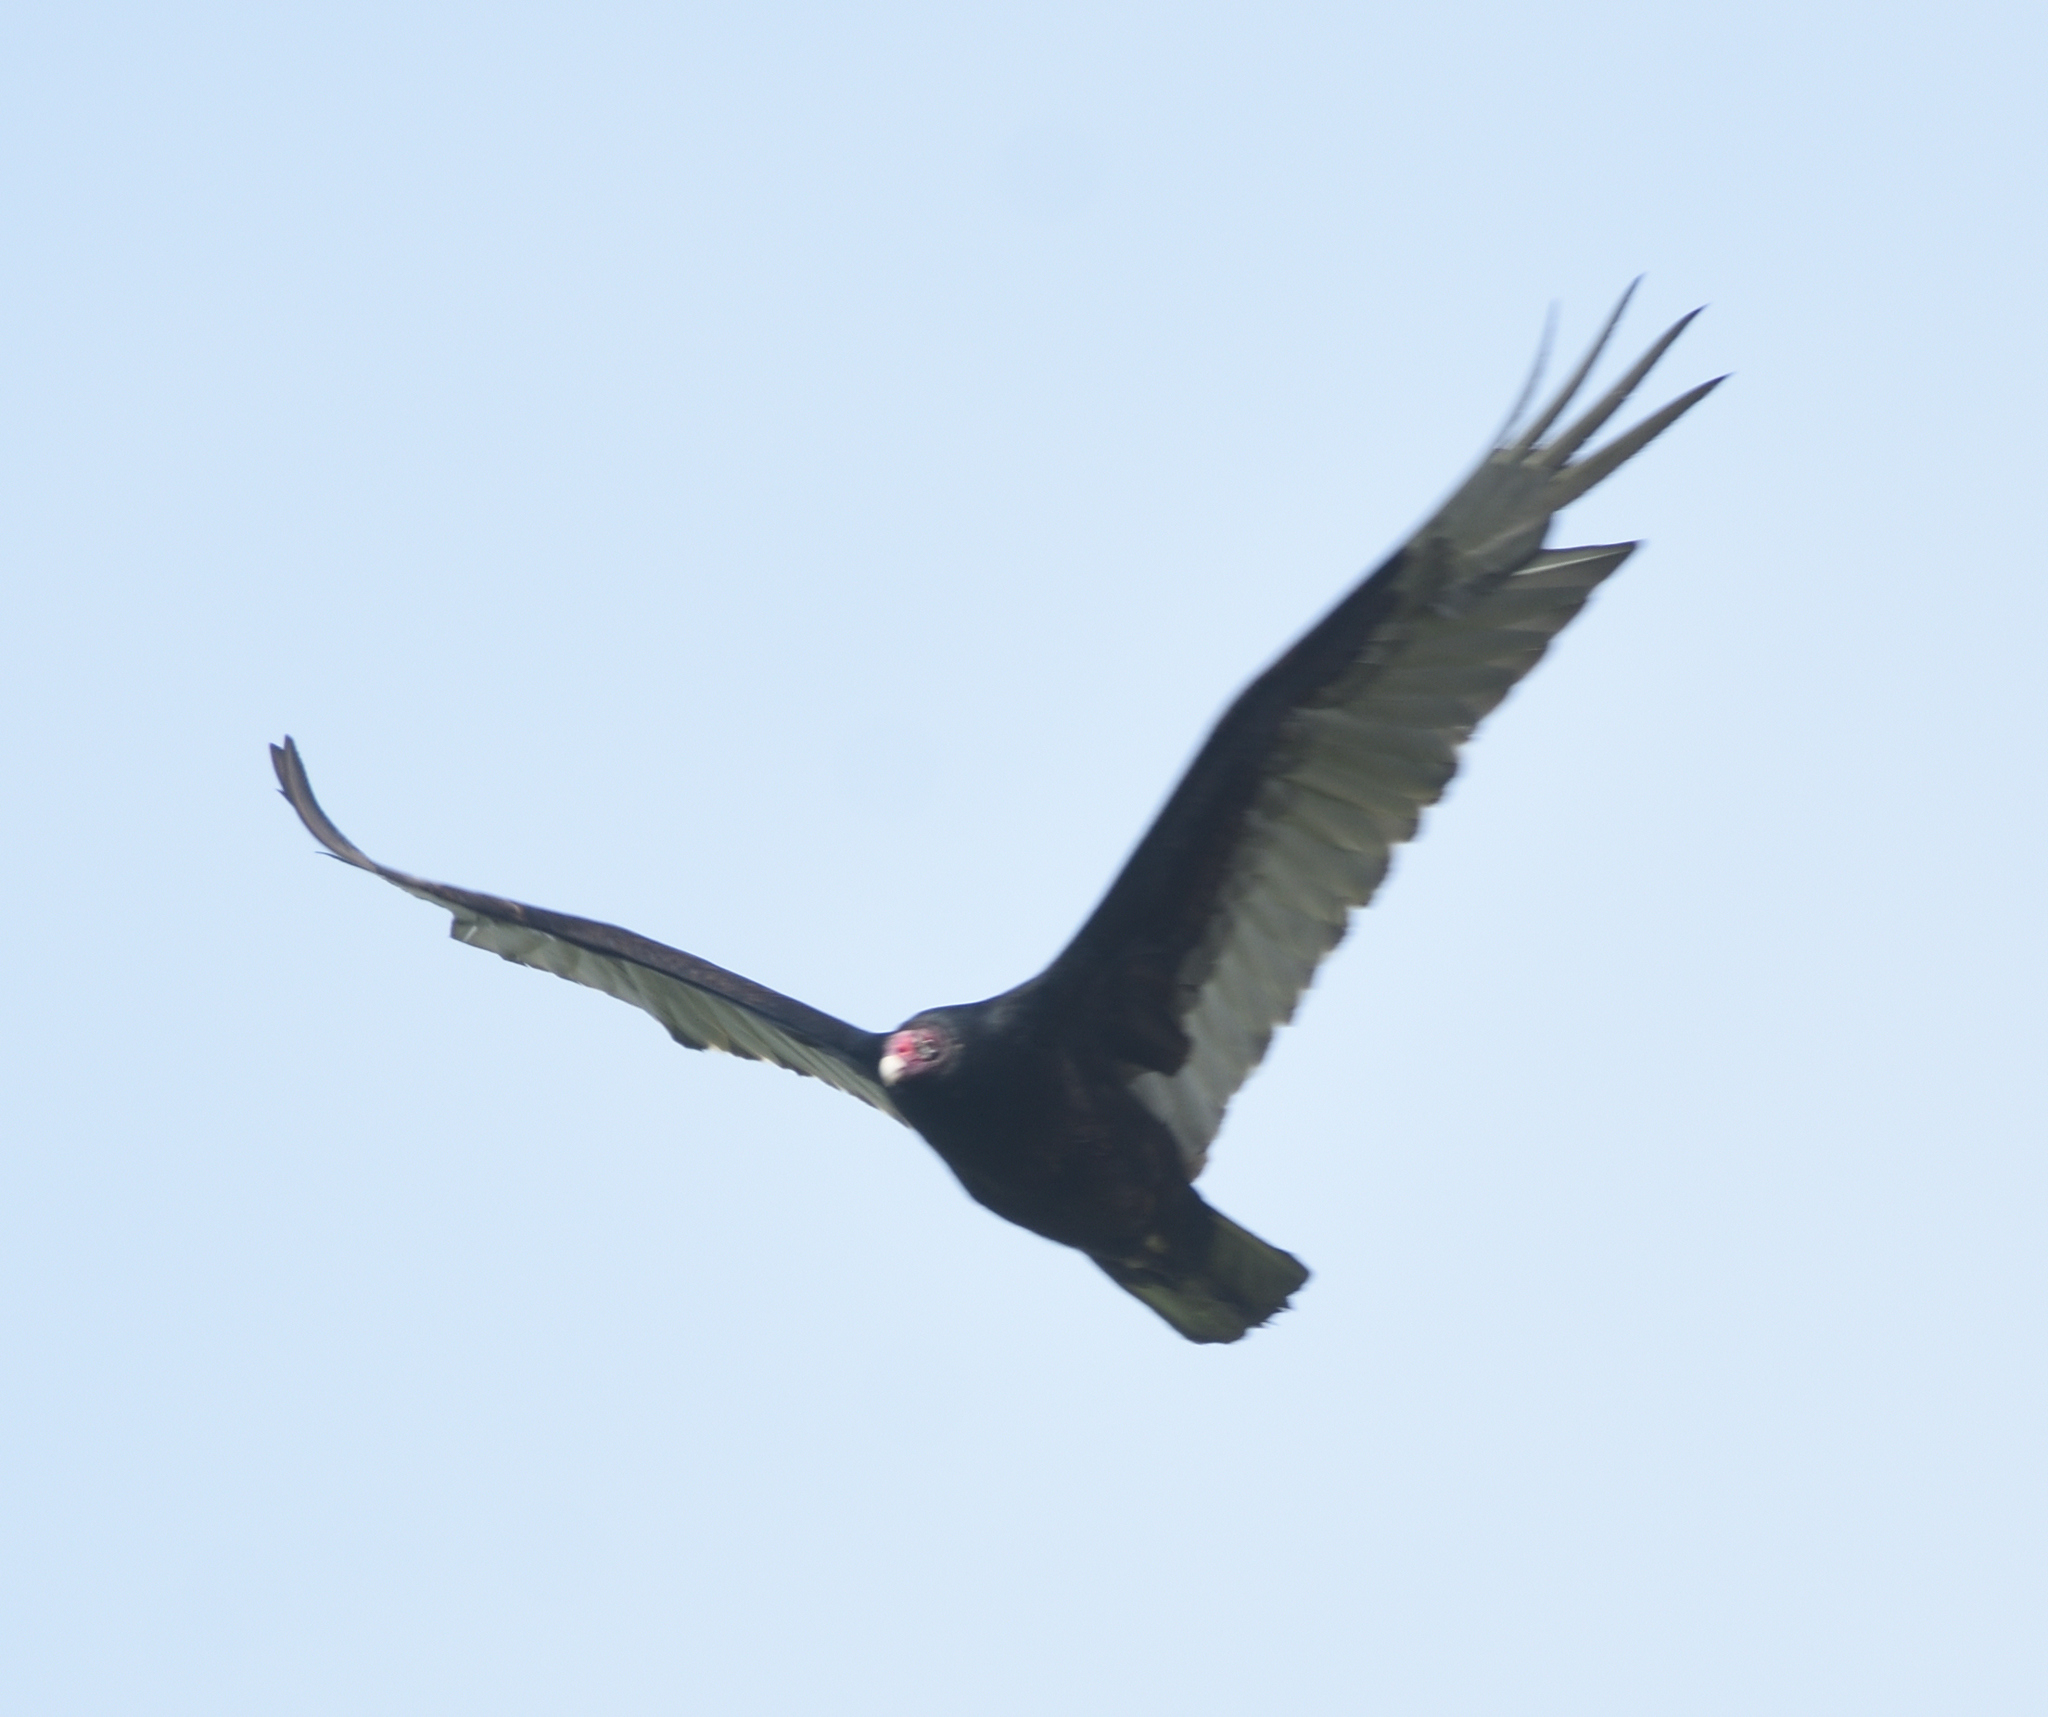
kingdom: Animalia
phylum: Chordata
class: Aves
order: Accipitriformes
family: Cathartidae
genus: Cathartes
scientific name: Cathartes aura
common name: Turkey vulture
